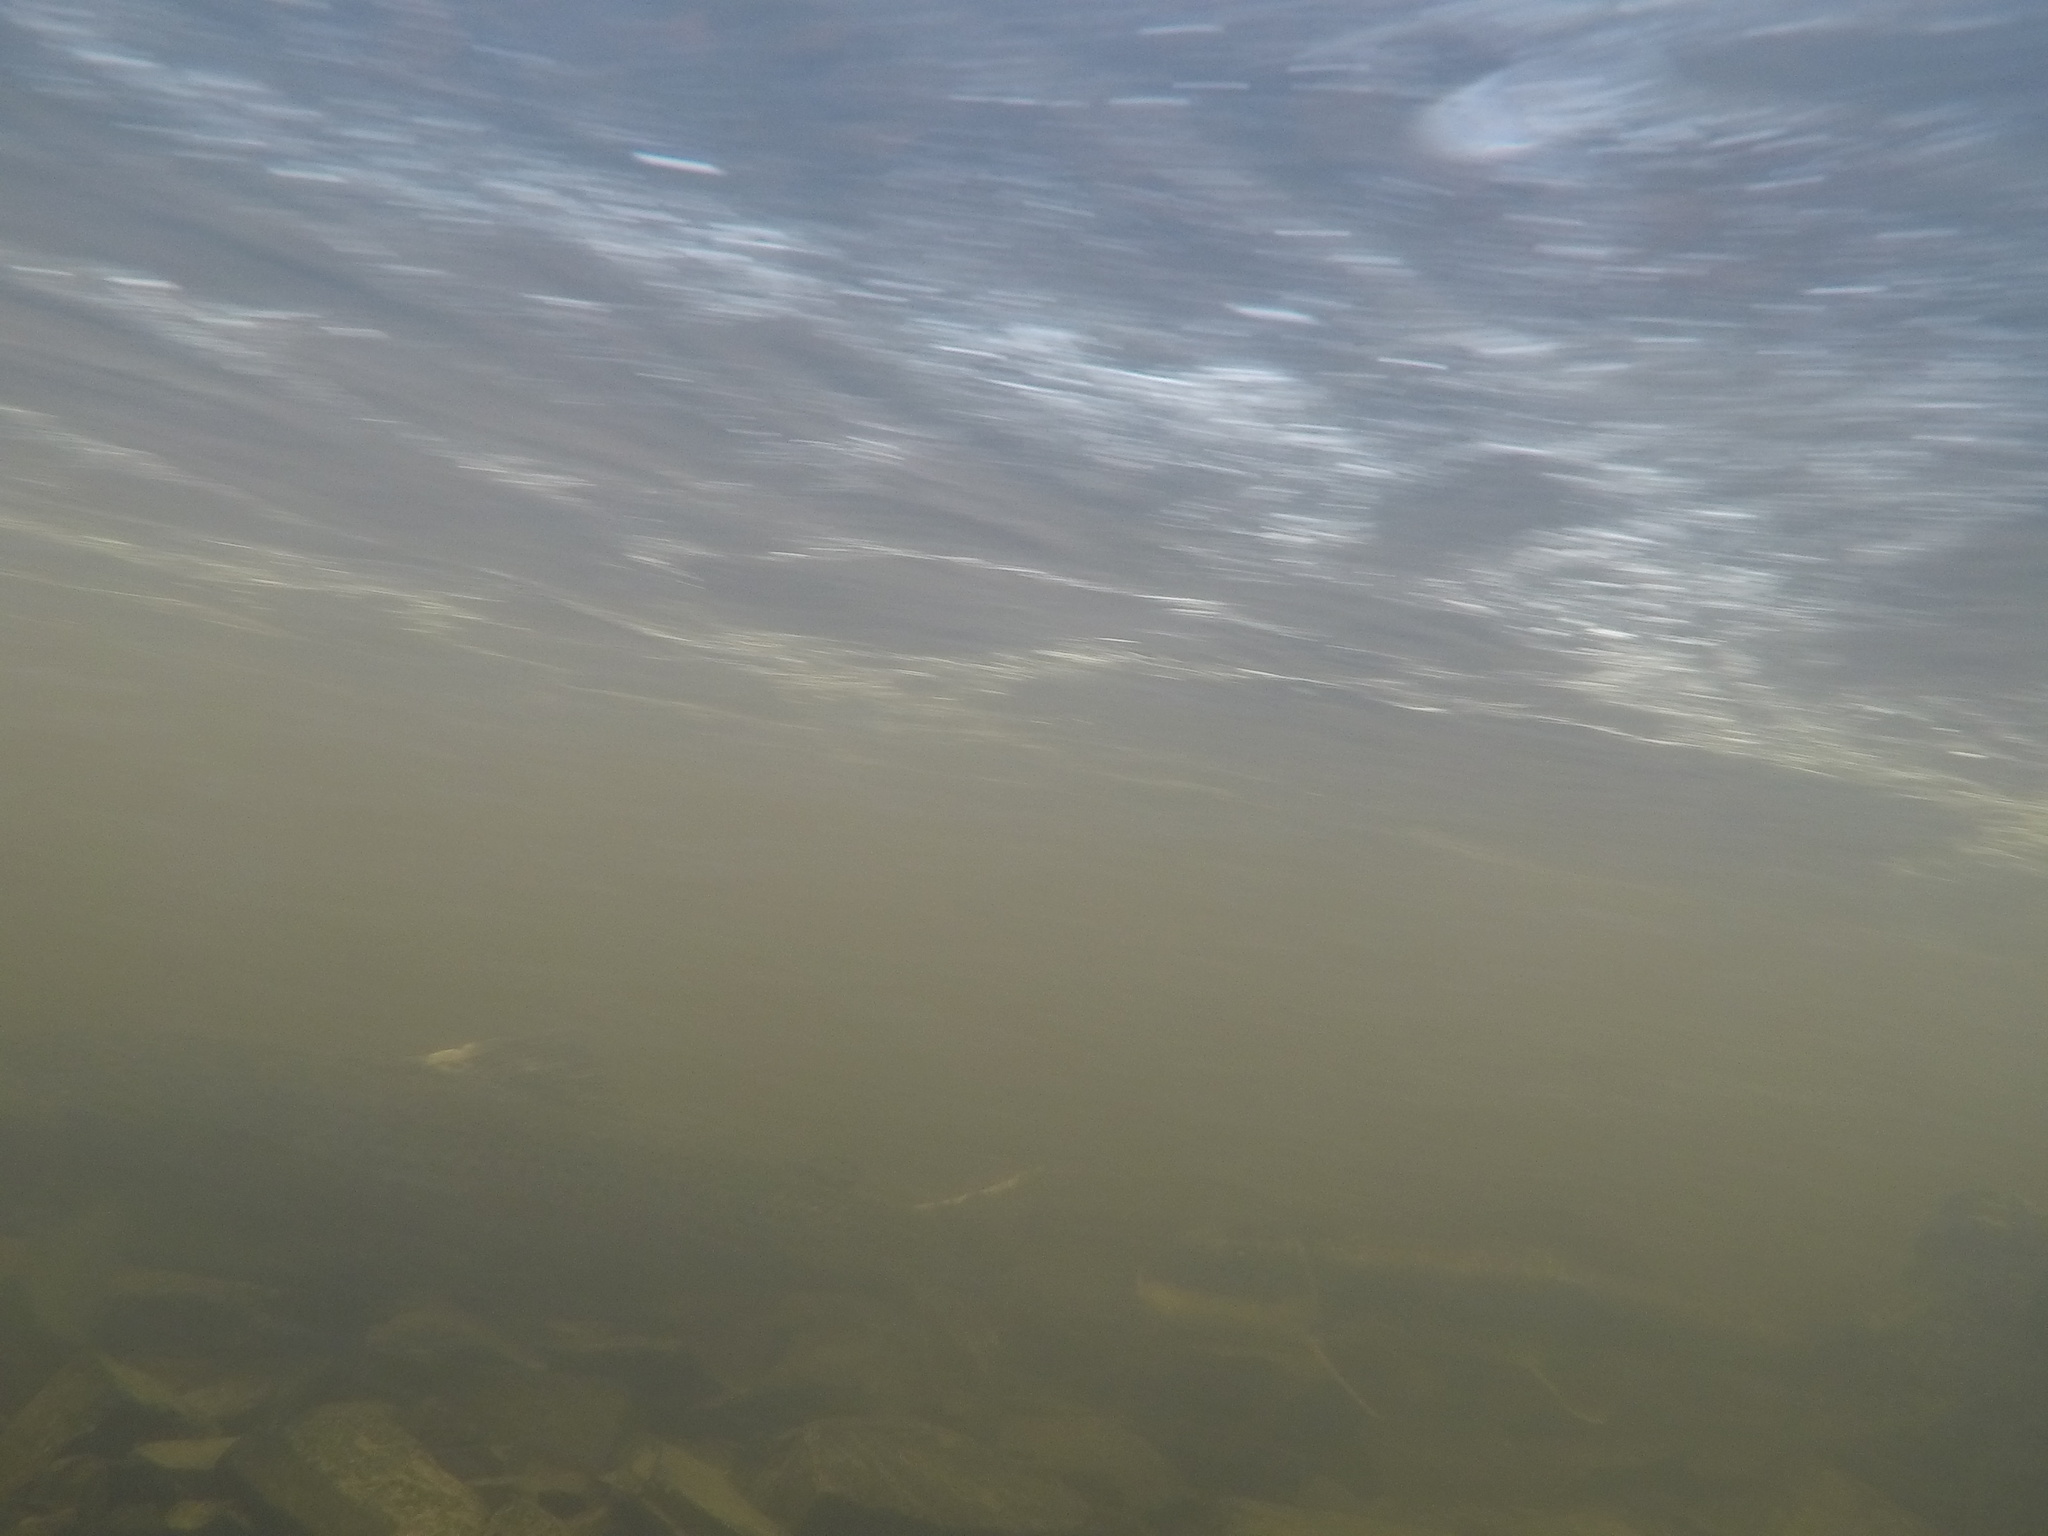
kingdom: Animalia
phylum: Chordata
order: Salmoniformes
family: Salmonidae
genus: Oncorhynchus
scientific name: Oncorhynchus mykiss
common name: Rainbow trout
